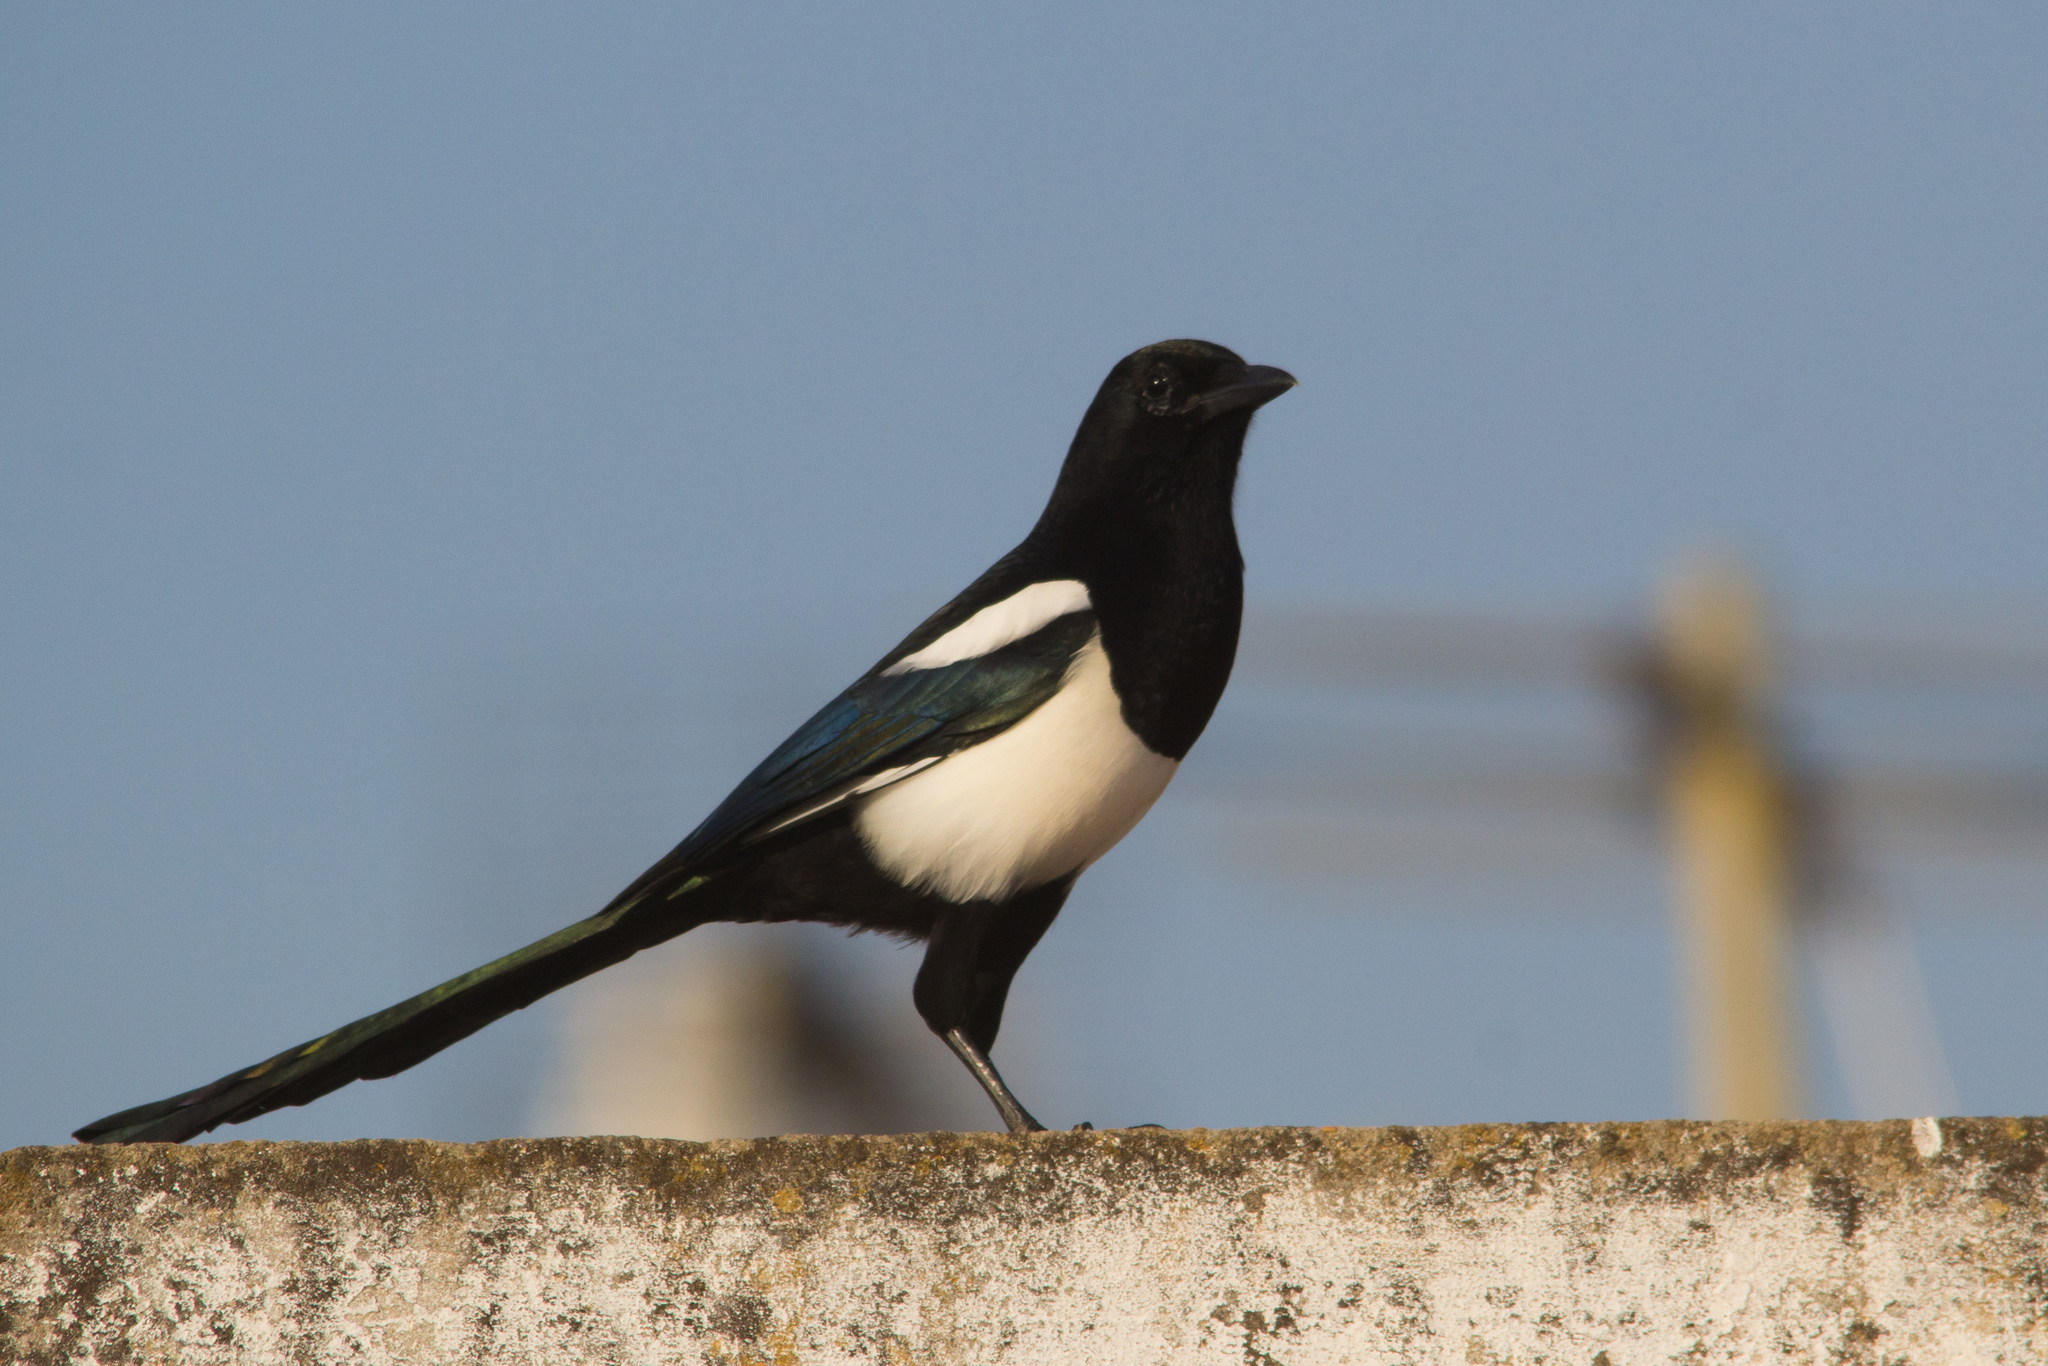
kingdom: Animalia
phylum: Chordata
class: Aves
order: Passeriformes
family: Corvidae
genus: Pica
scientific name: Pica pica
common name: Eurasian magpie
